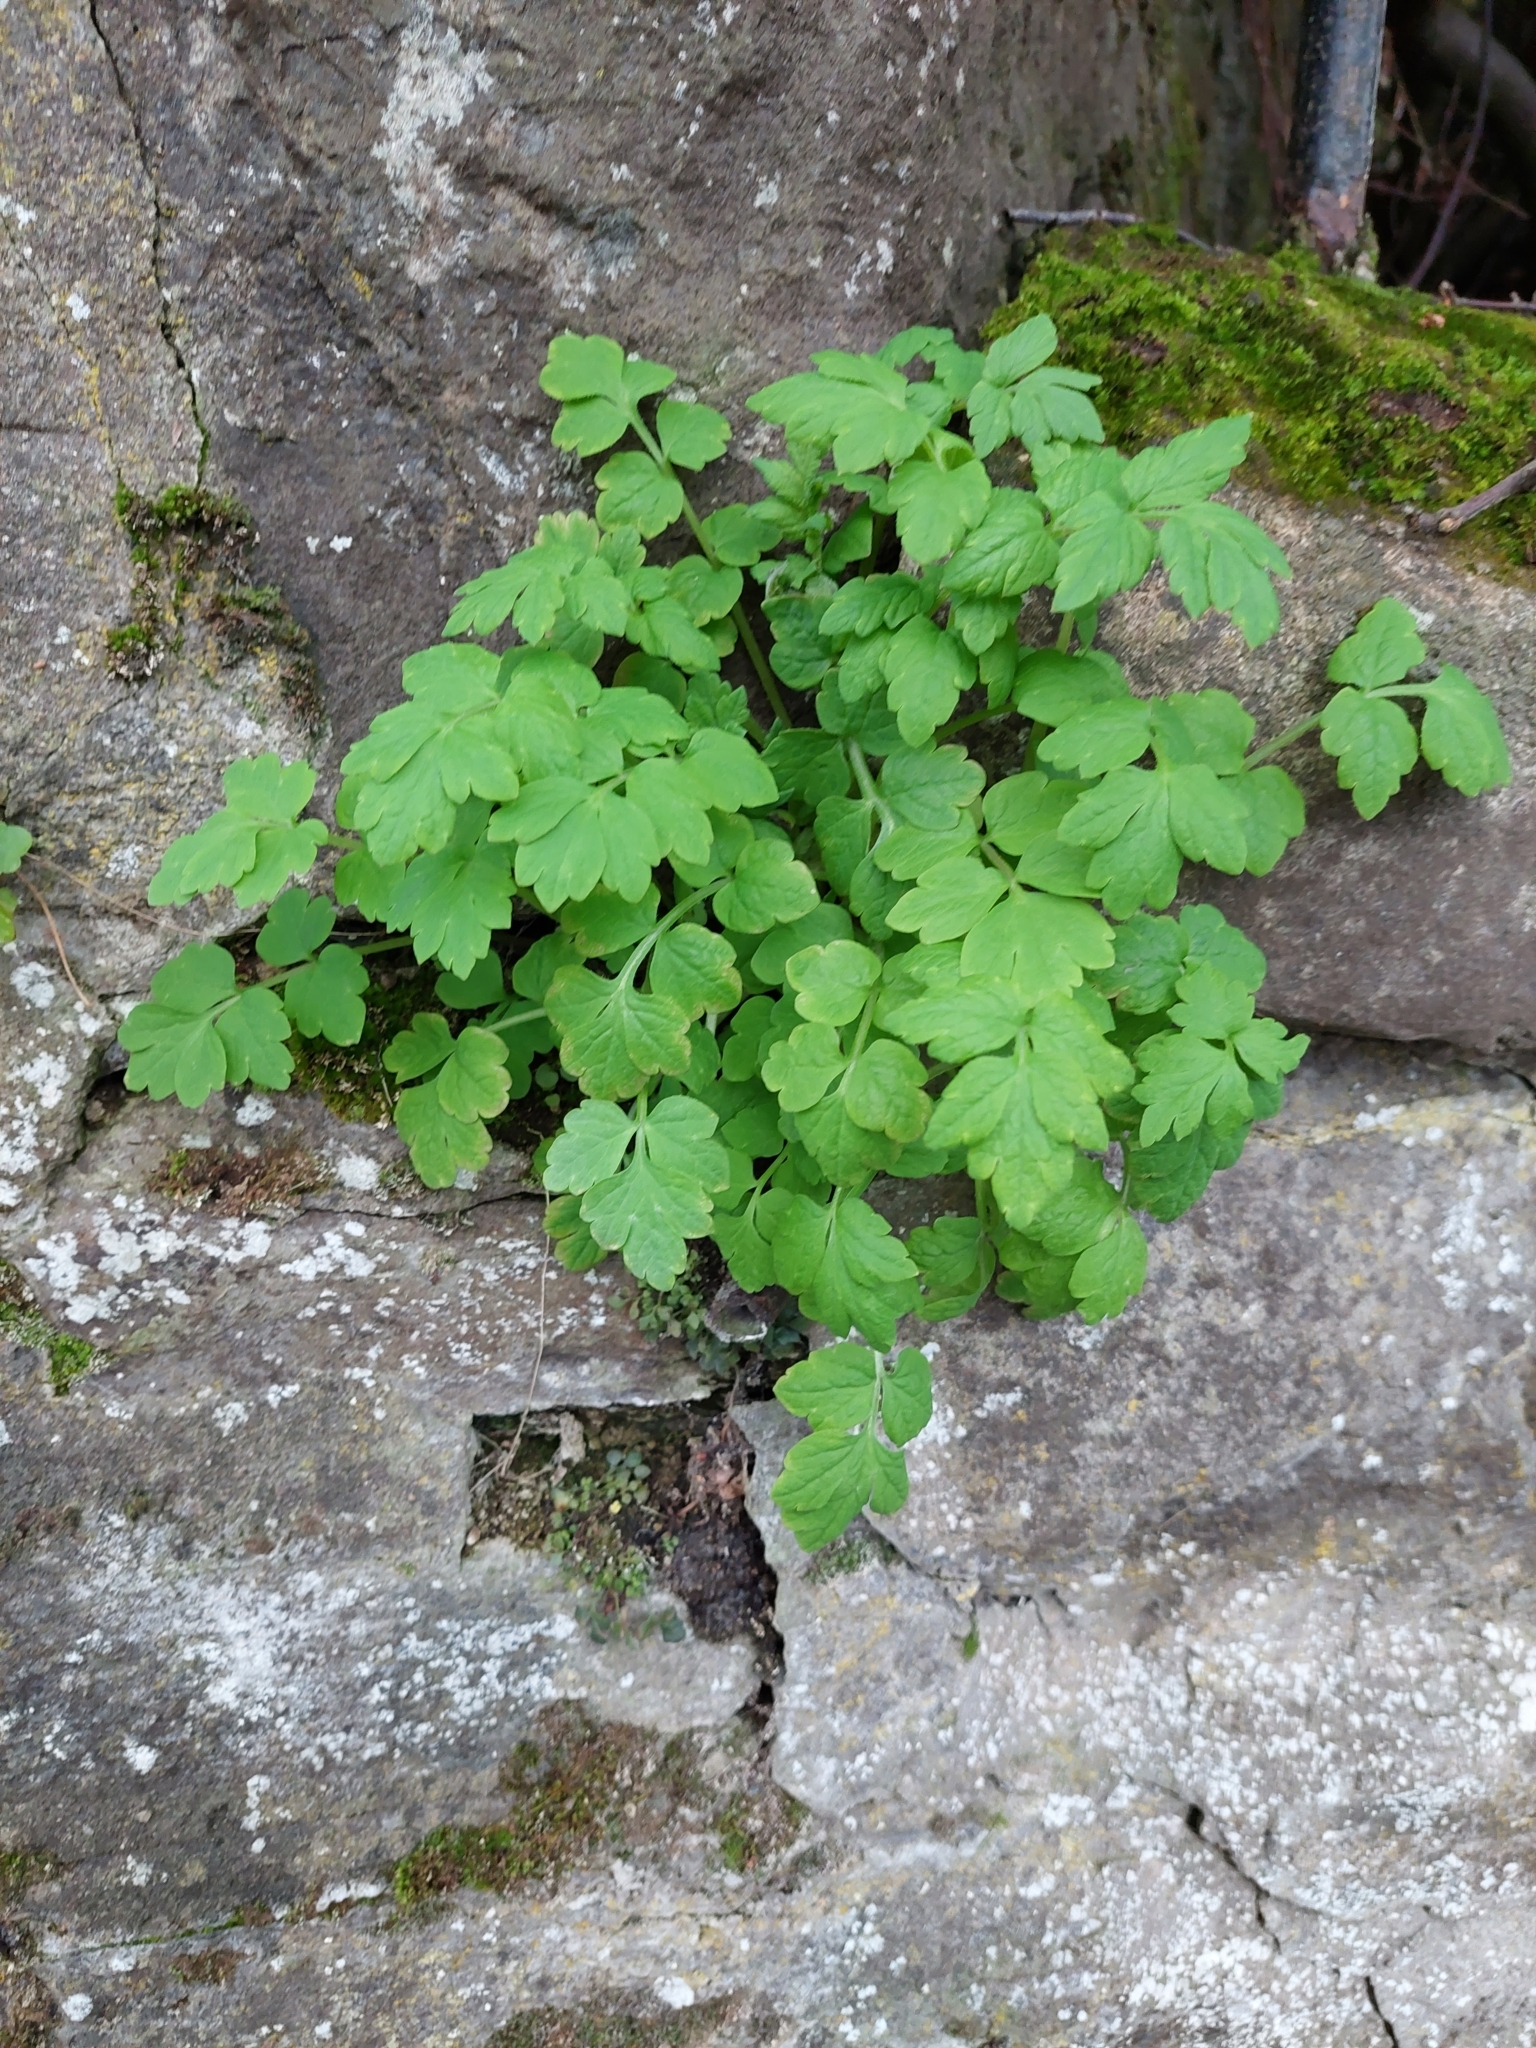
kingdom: Plantae
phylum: Tracheophyta
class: Magnoliopsida
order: Ranunculales
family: Papaveraceae
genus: Papaver
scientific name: Papaver cambricum
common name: Poppy
